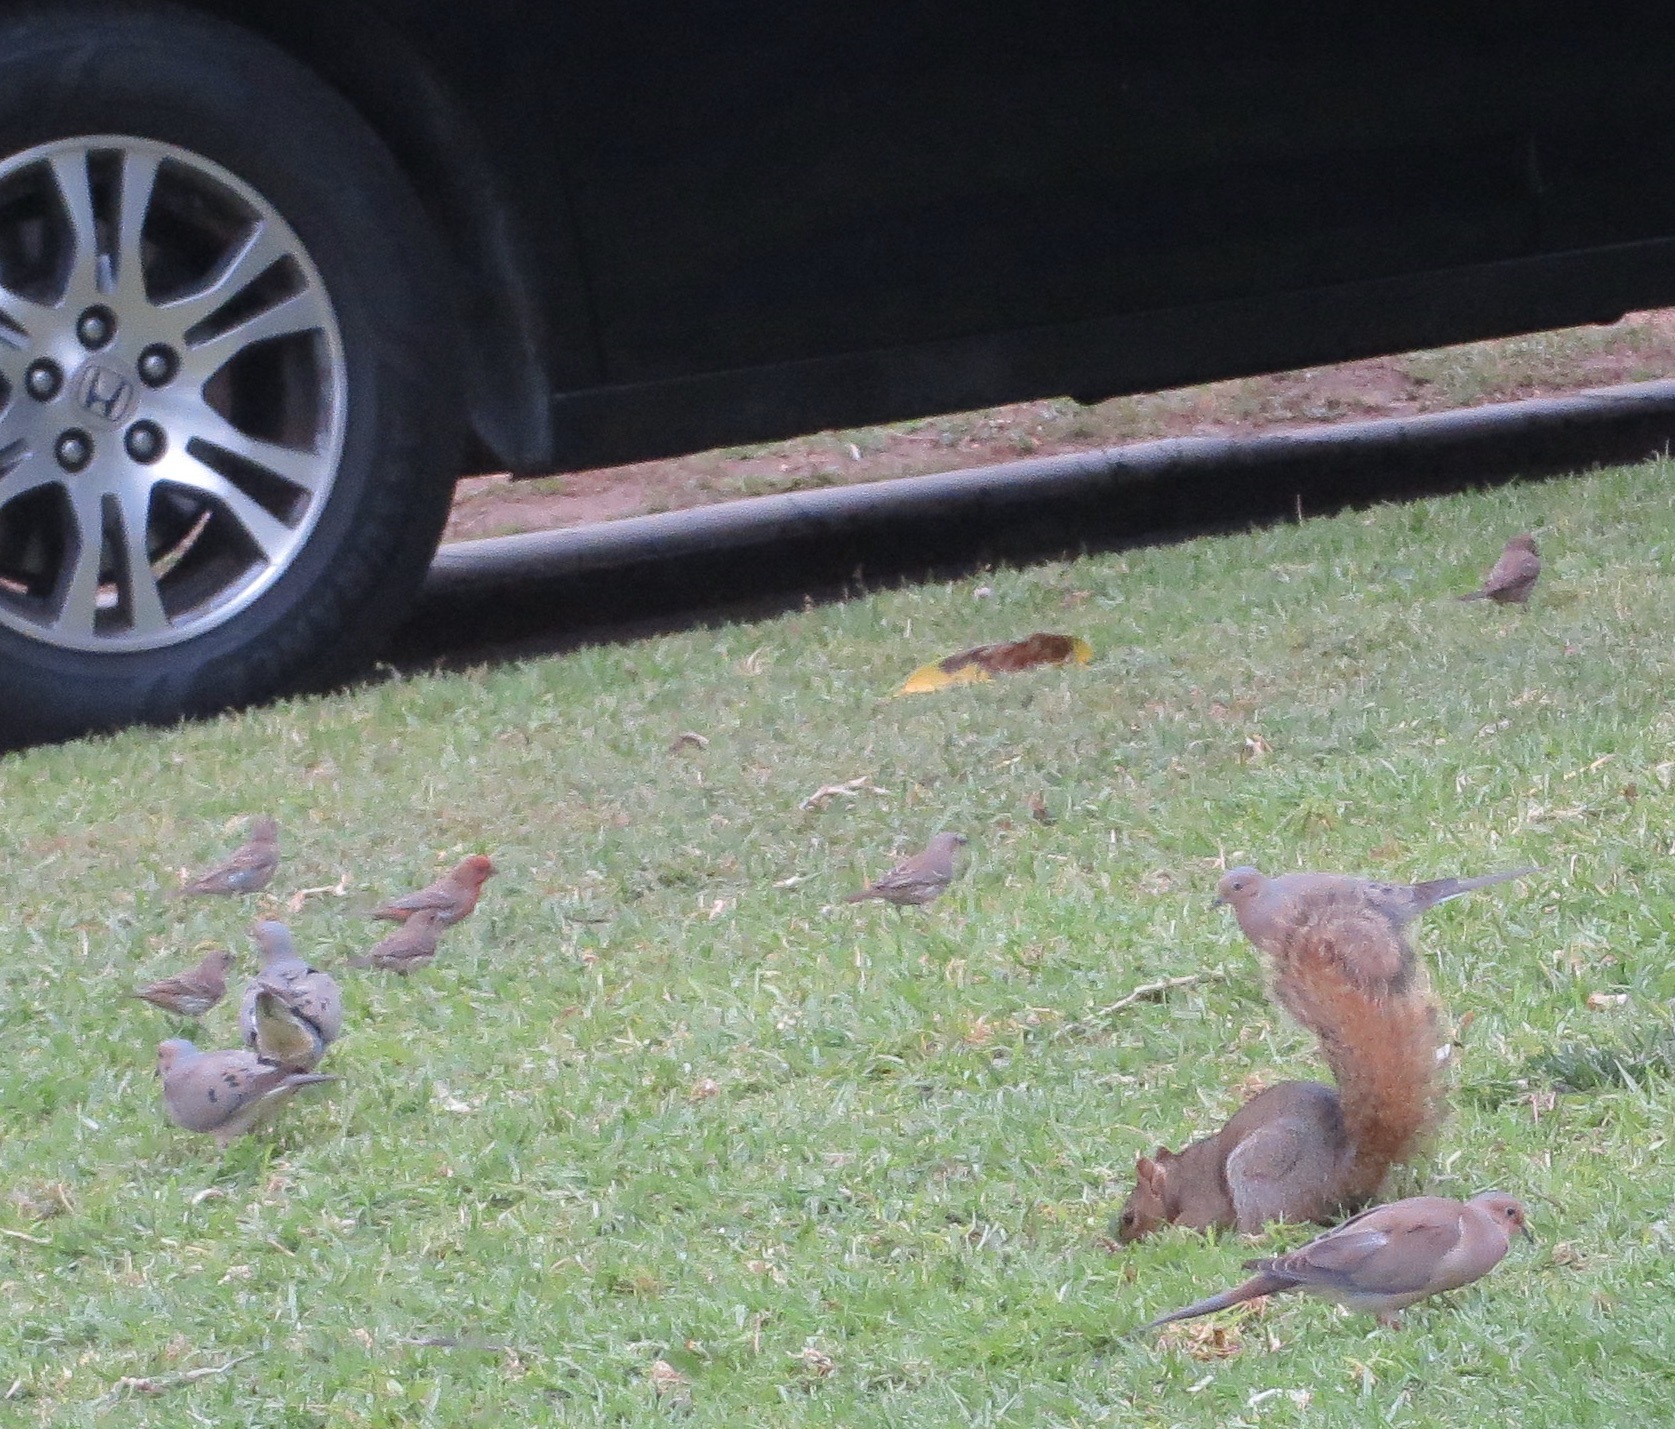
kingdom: Animalia
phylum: Chordata
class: Mammalia
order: Rodentia
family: Sciuridae
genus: Sciurus
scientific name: Sciurus niger
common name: Fox squirrel
